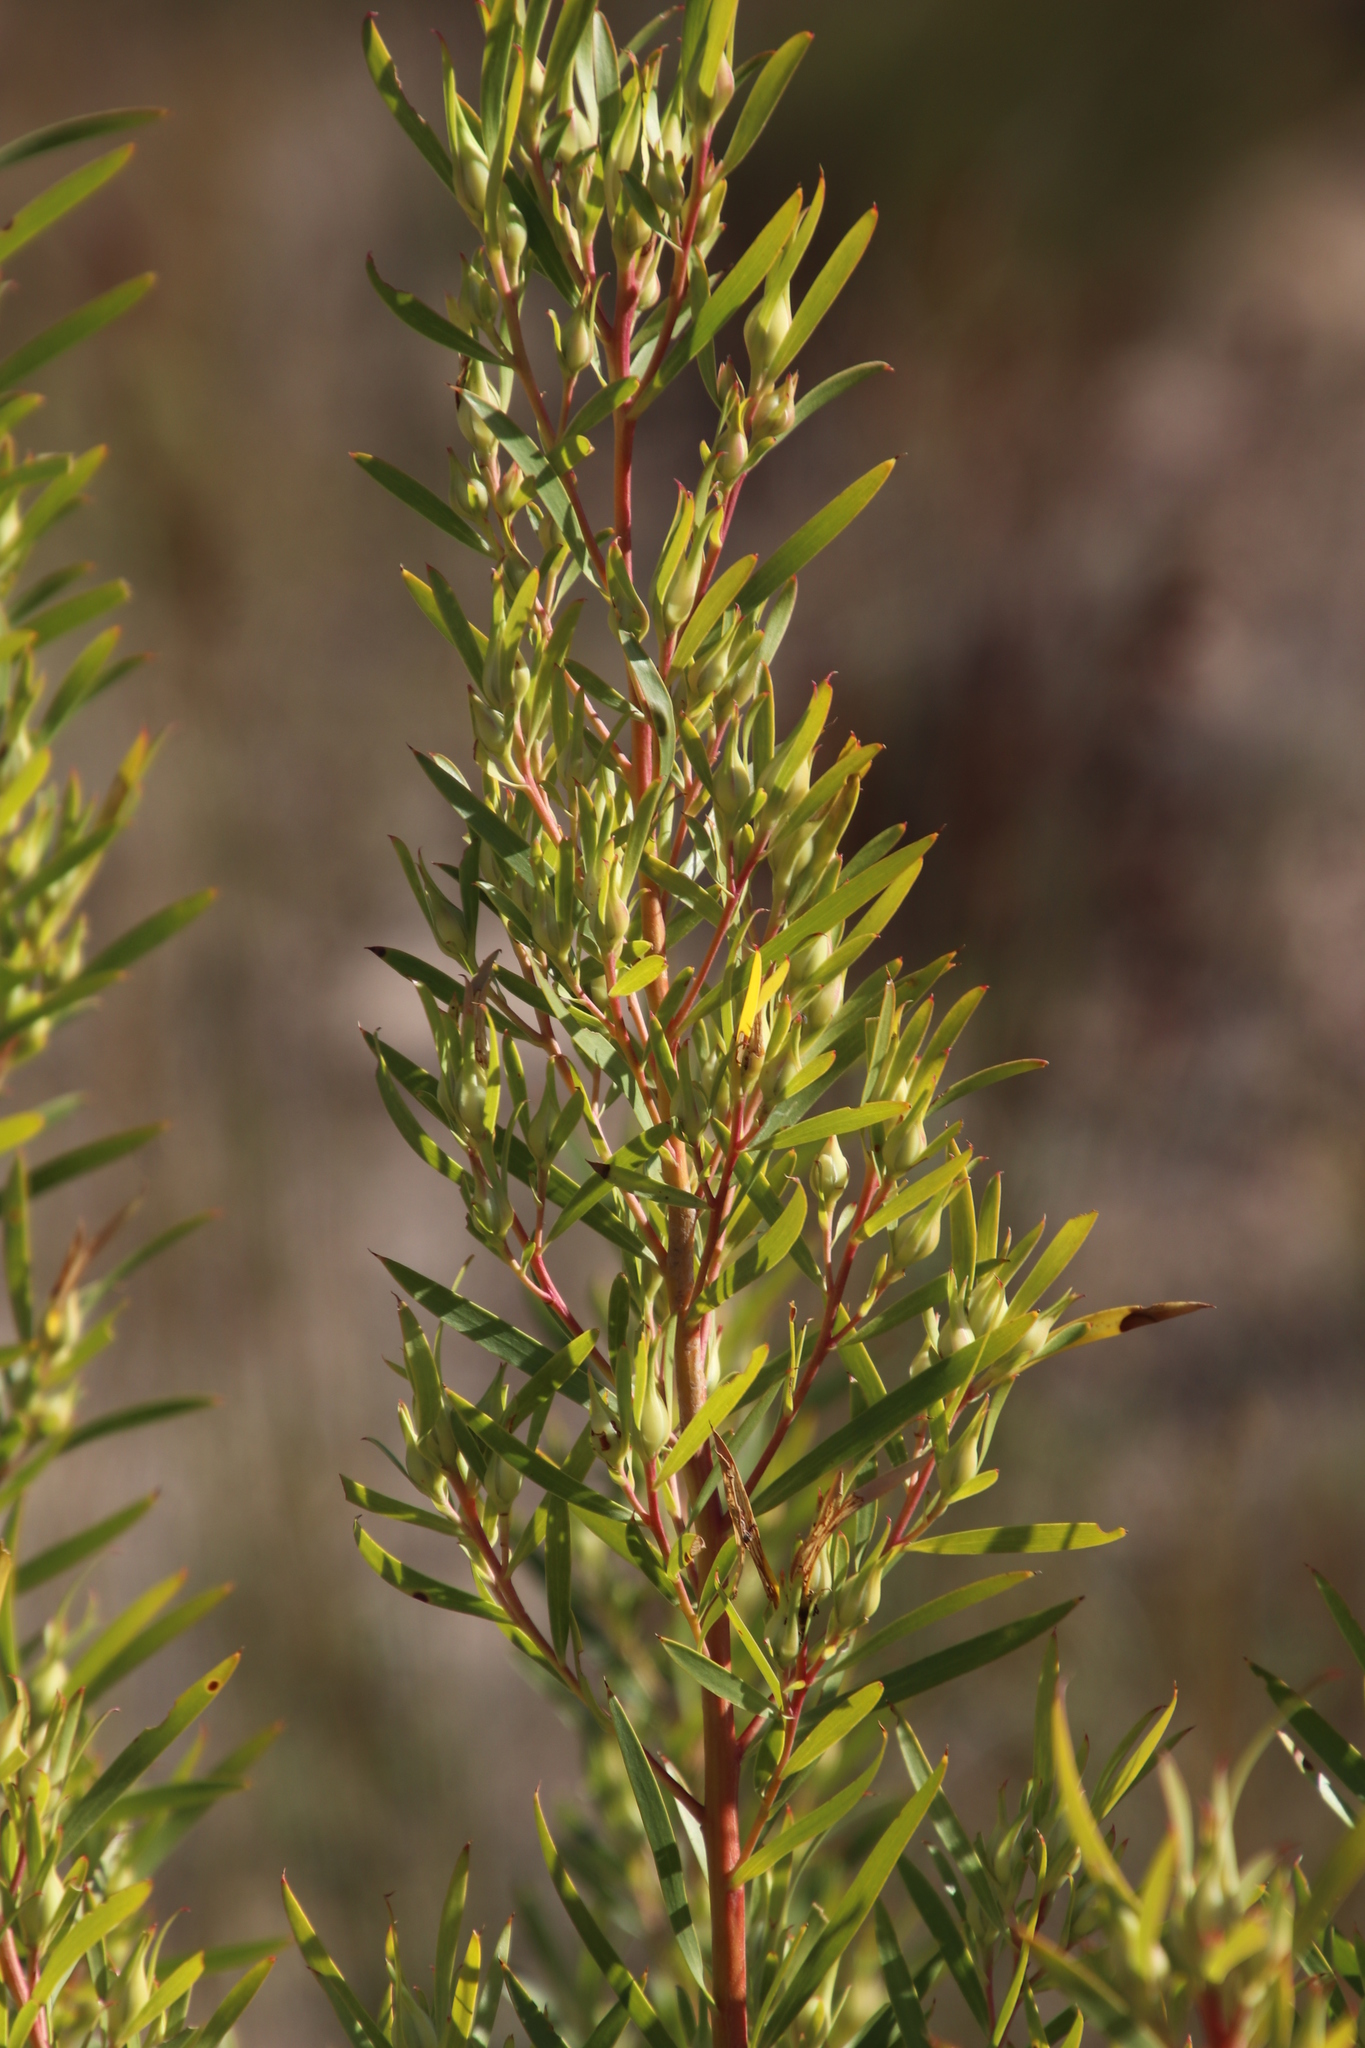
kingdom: Plantae
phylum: Tracheophyta
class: Magnoliopsida
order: Proteales
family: Proteaceae
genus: Leucadendron
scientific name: Leucadendron salicifolium
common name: Common stream conebush
